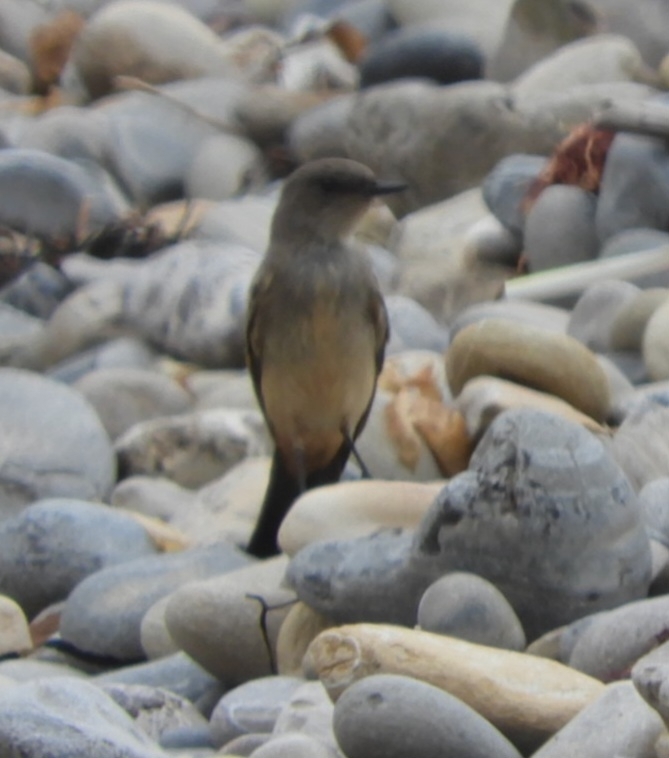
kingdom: Animalia
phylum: Chordata
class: Aves
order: Passeriformes
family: Tyrannidae
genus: Sayornis
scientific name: Sayornis saya
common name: Say's phoebe
